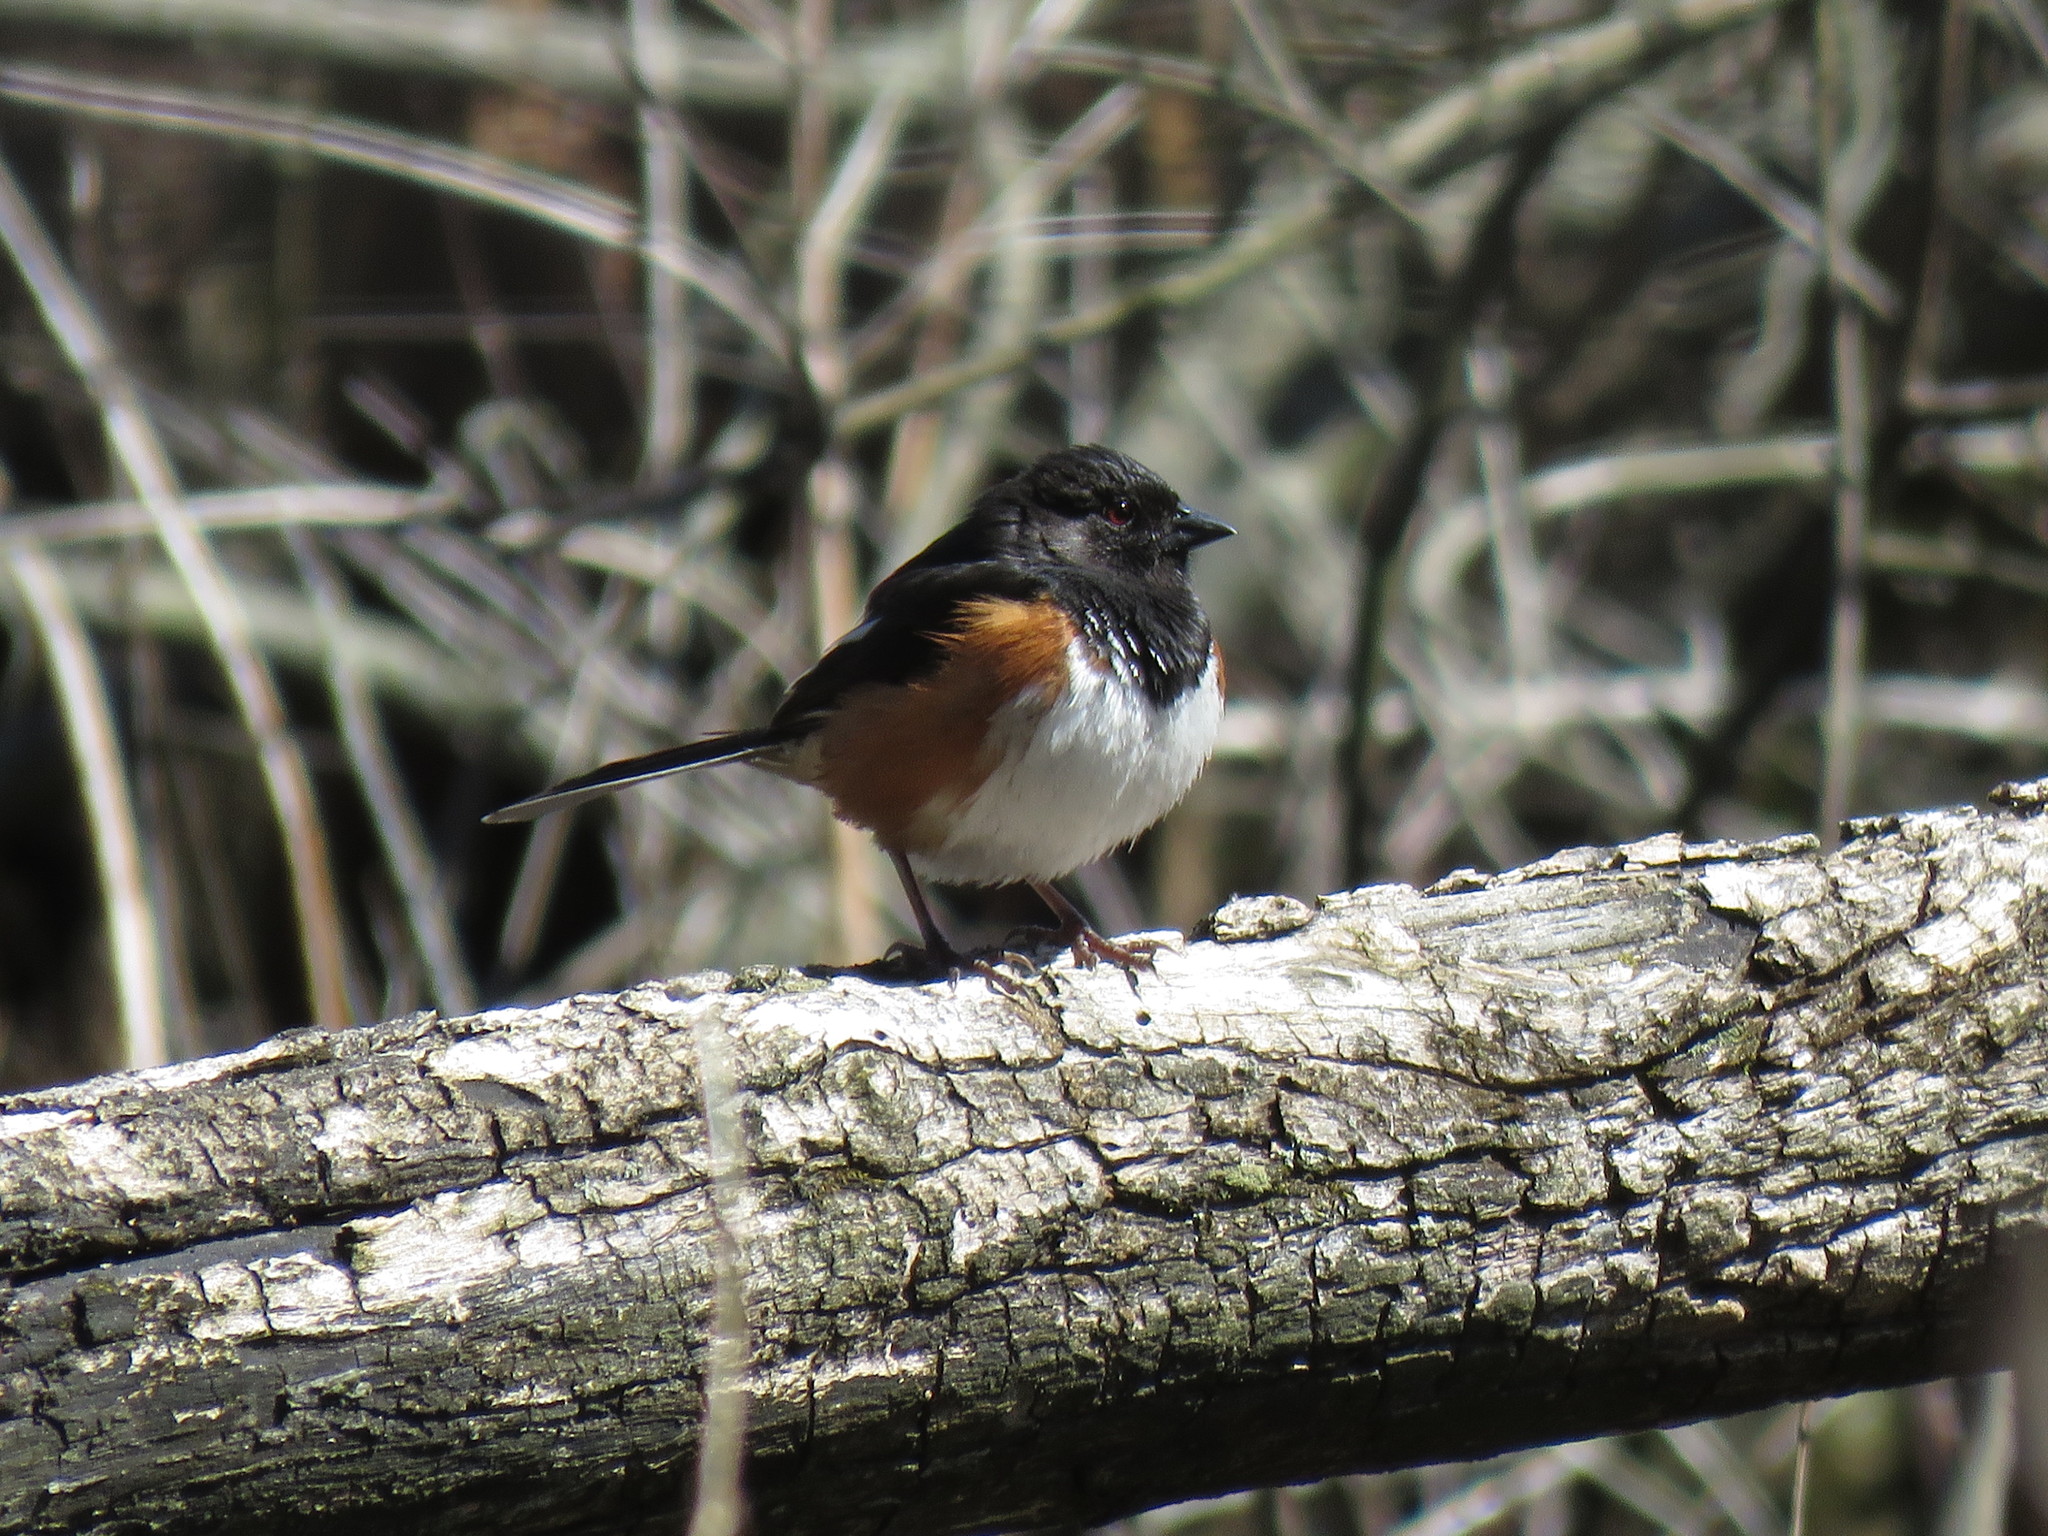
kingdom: Animalia
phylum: Chordata
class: Aves
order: Passeriformes
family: Passerellidae
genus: Pipilo
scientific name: Pipilo erythrophthalmus
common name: Eastern towhee
